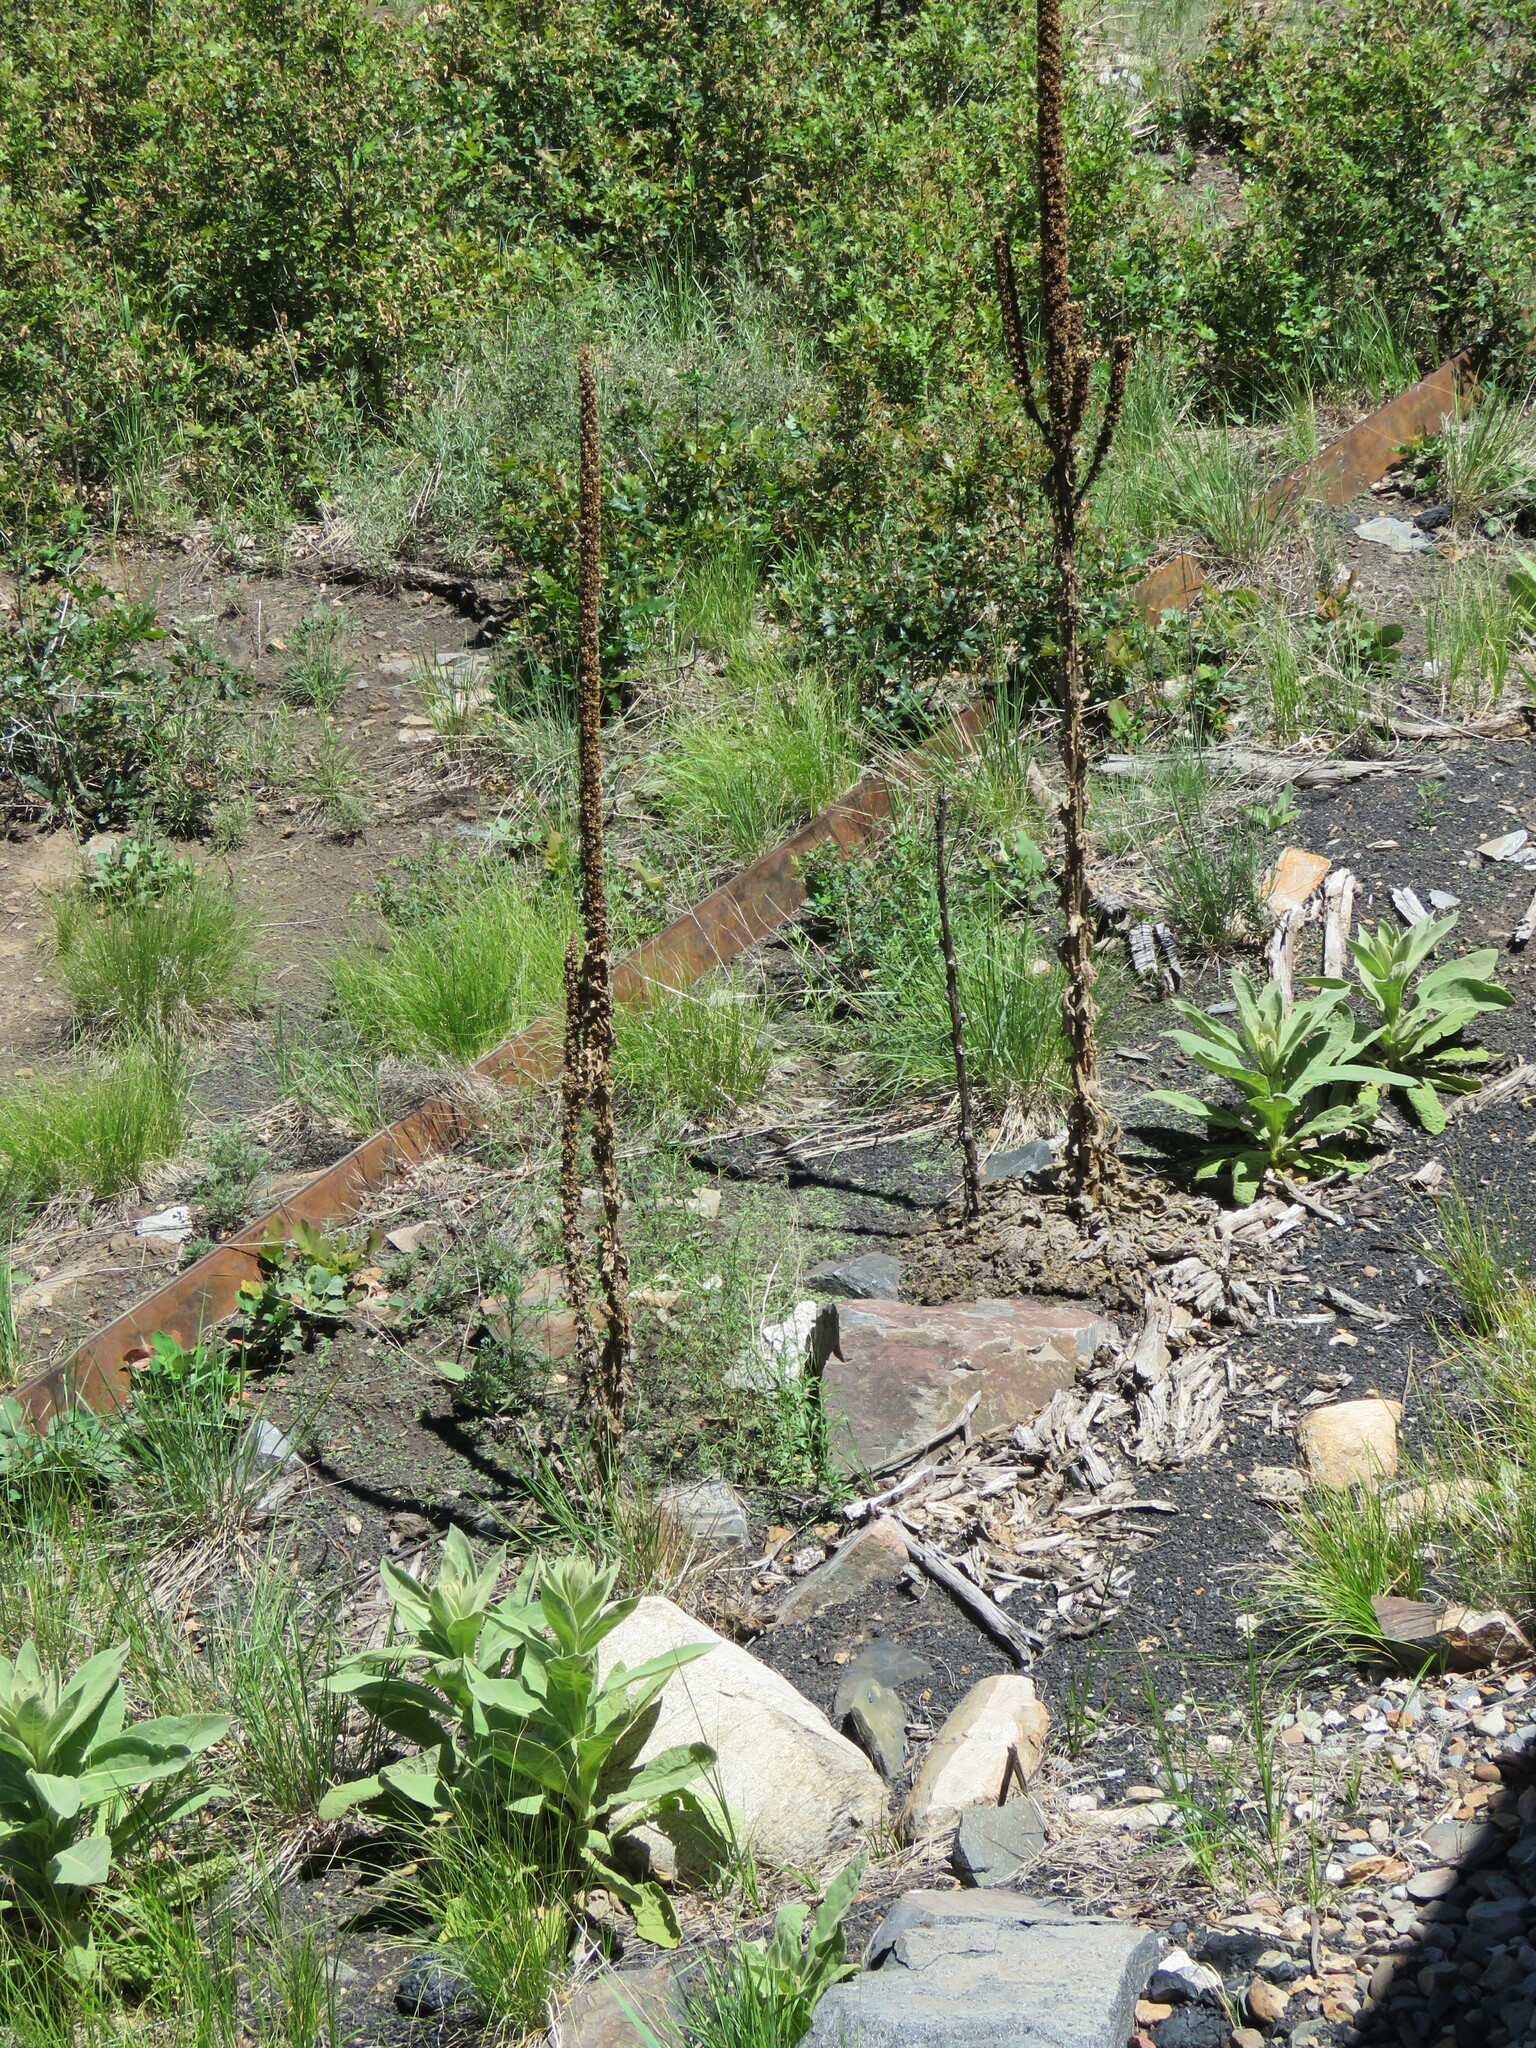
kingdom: Plantae
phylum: Tracheophyta
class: Magnoliopsida
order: Lamiales
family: Scrophulariaceae
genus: Verbascum
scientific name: Verbascum thapsus
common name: Common mullein
